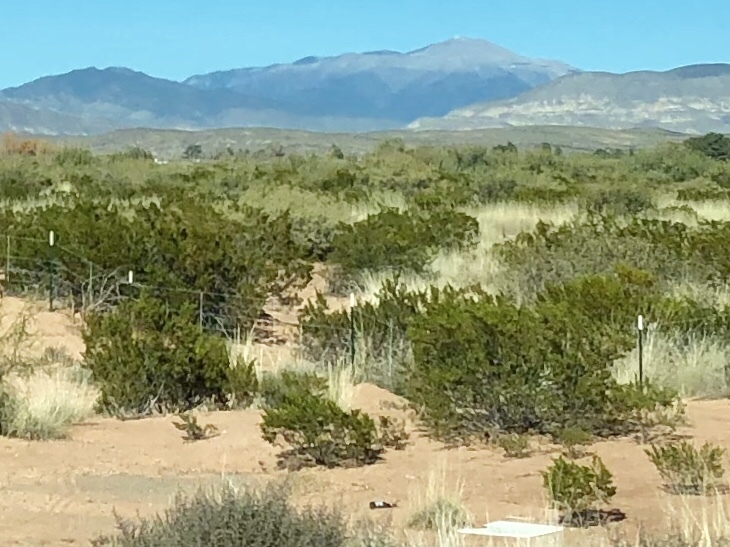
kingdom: Plantae
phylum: Tracheophyta
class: Magnoliopsida
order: Zygophyllales
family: Zygophyllaceae
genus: Larrea
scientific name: Larrea tridentata
